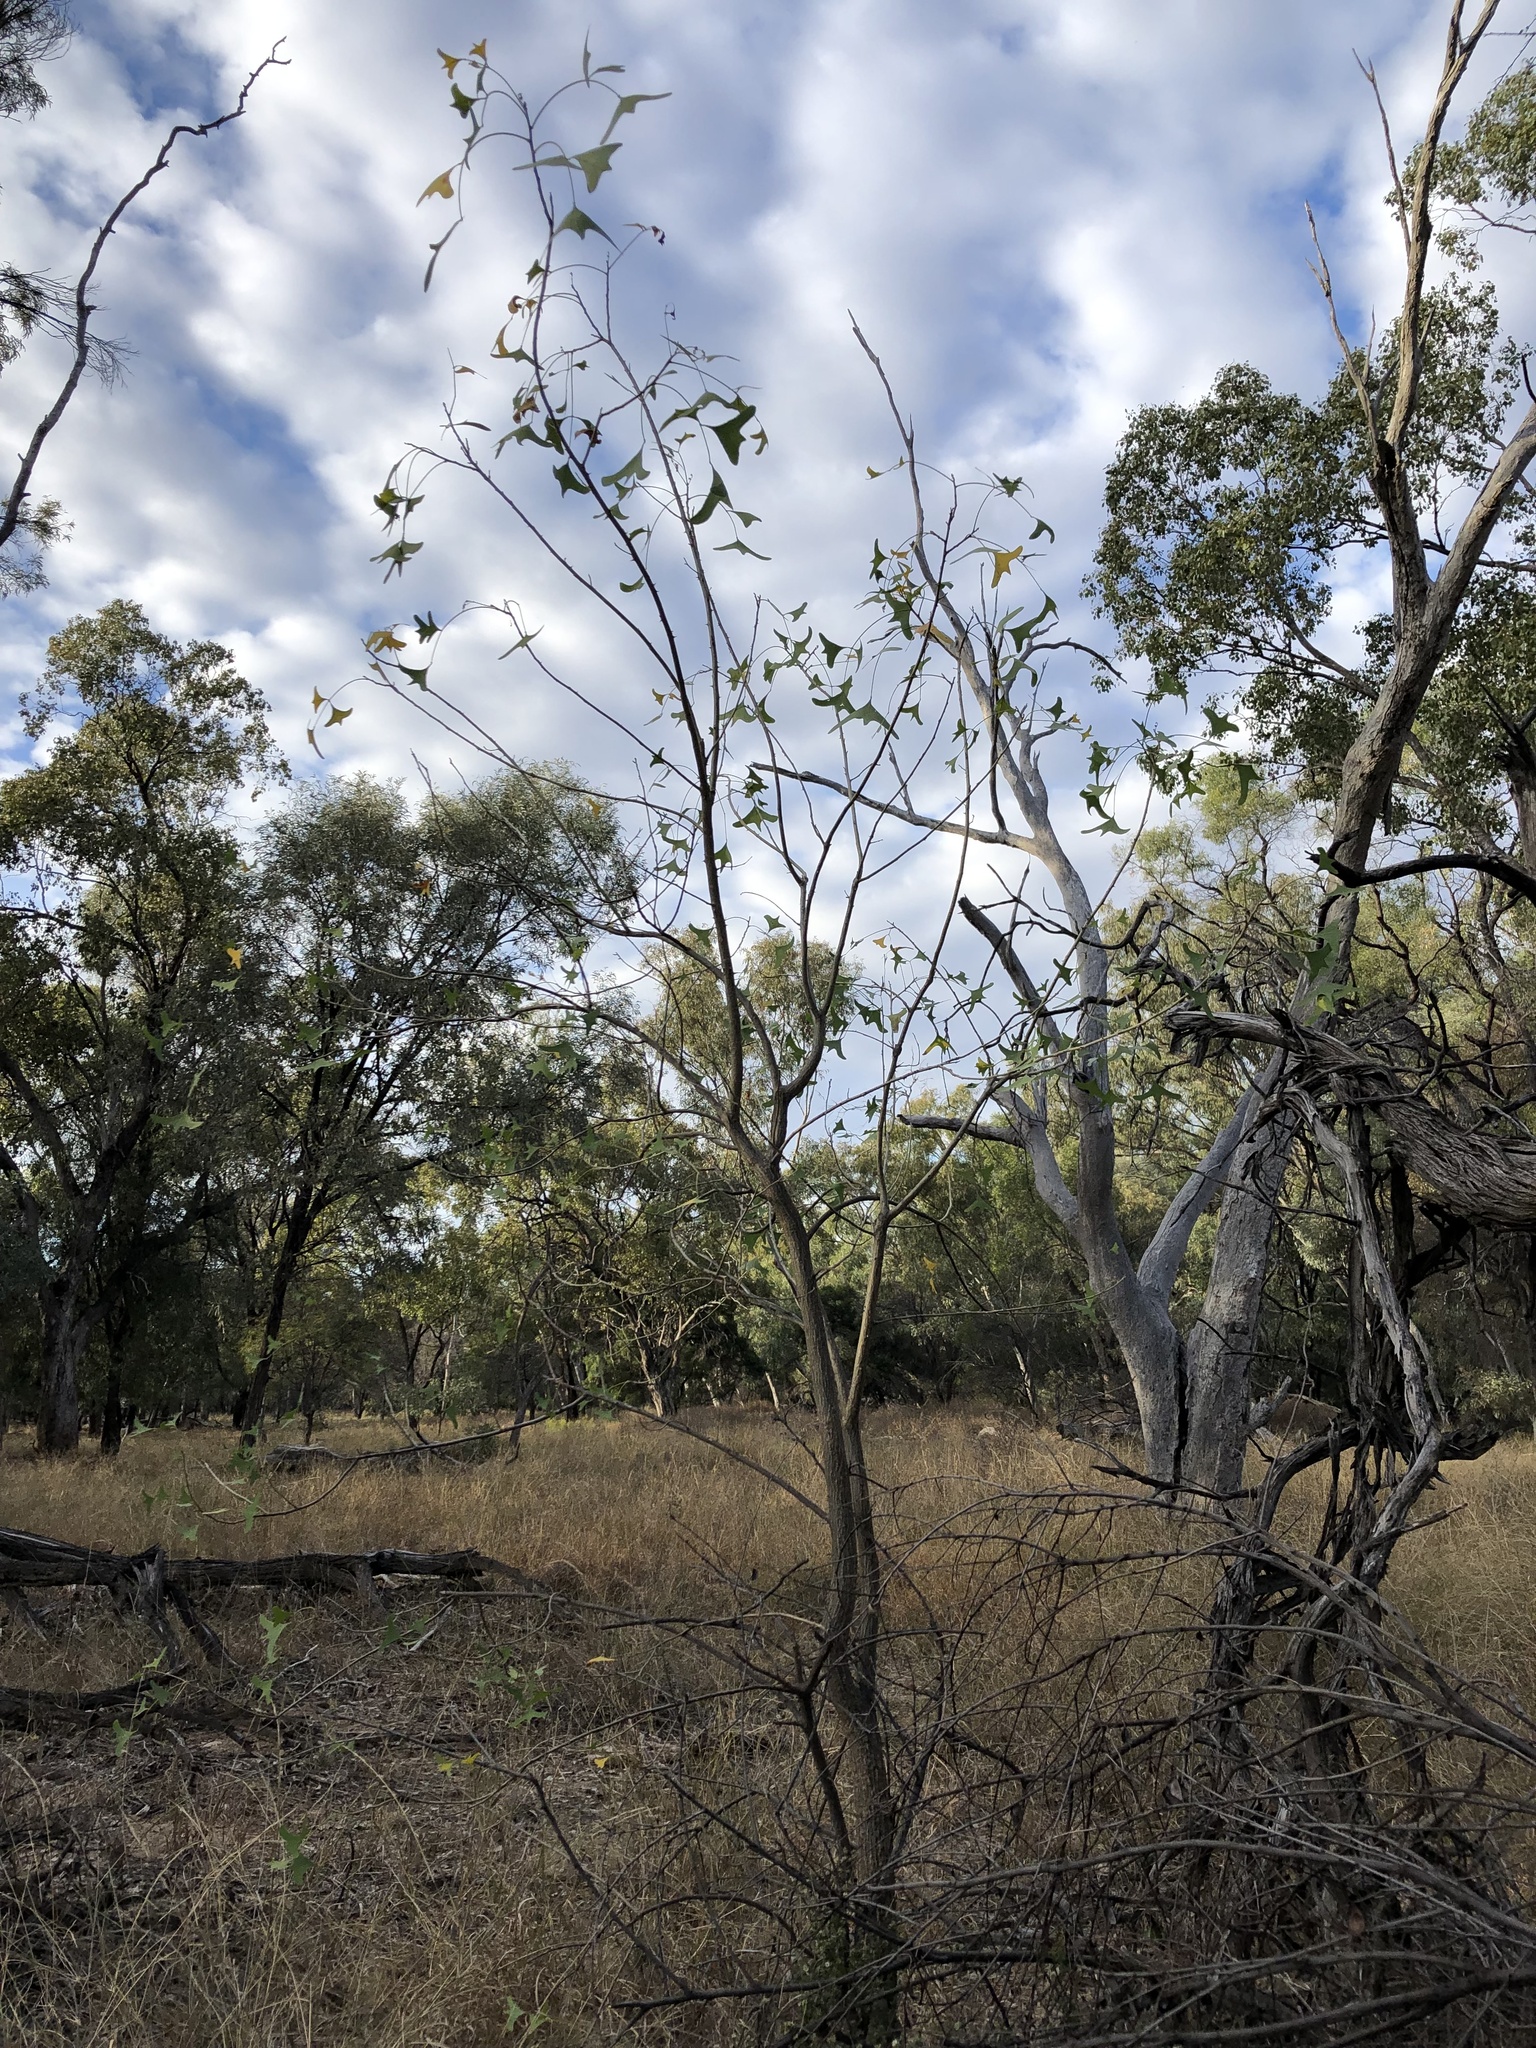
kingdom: Plantae
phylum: Tracheophyta
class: Magnoliopsida
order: Fabales
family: Fabaceae
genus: Erythrina
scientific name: Erythrina vespertilio
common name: Bat-wing coral tree
